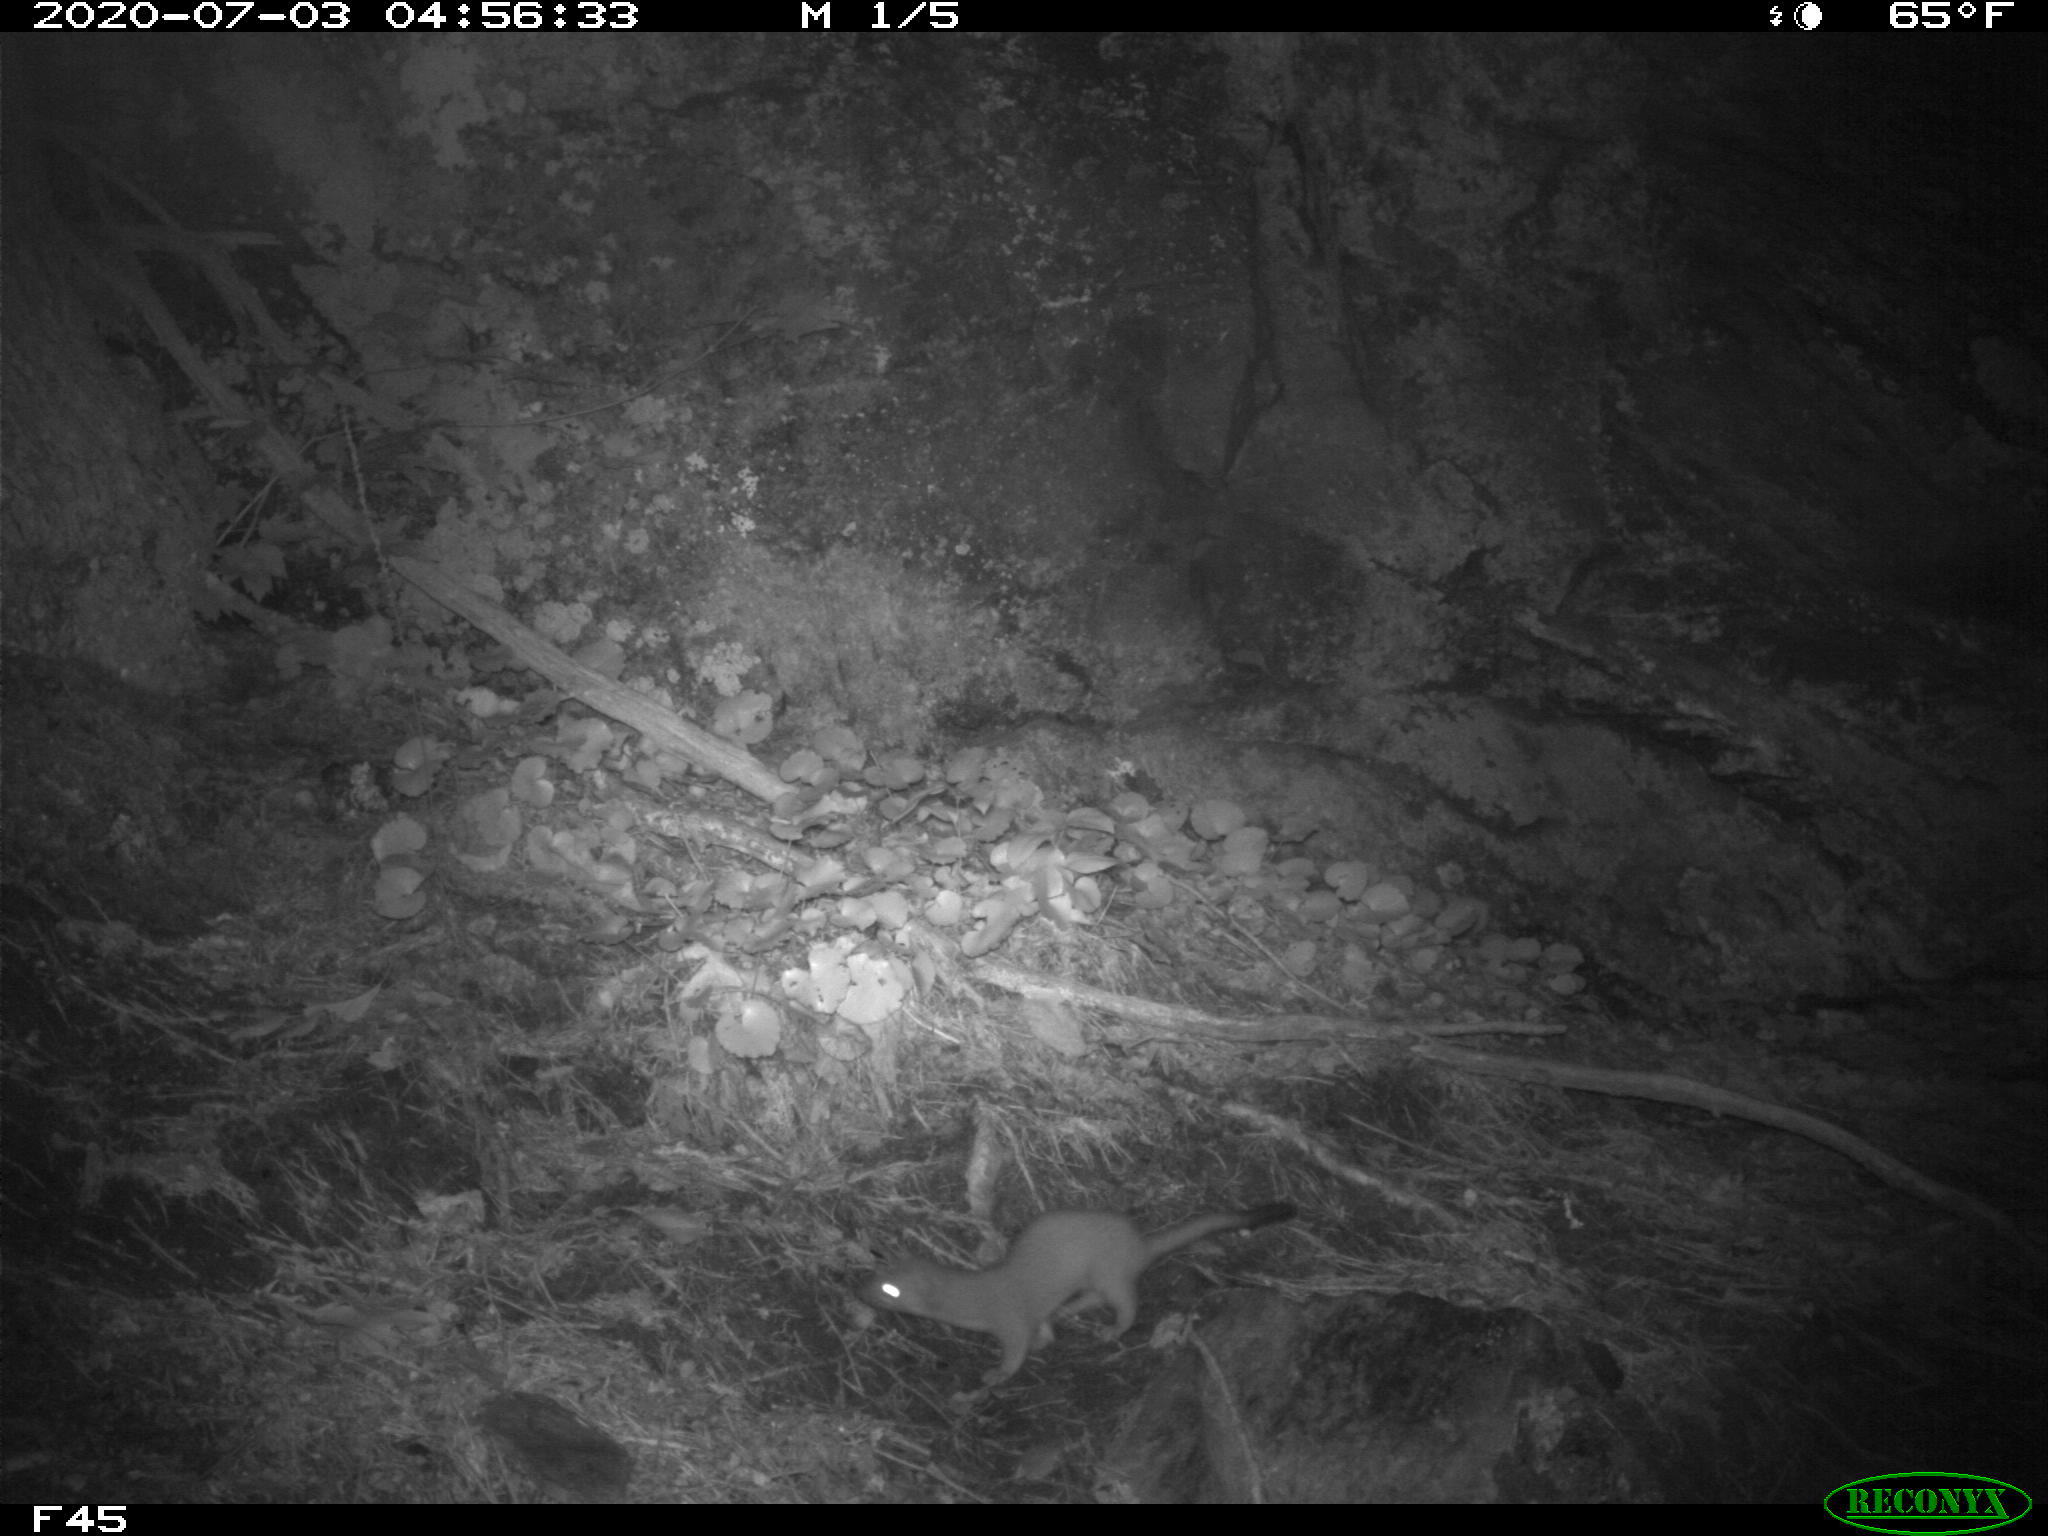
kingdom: Animalia
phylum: Chordata
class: Mammalia
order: Carnivora
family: Mustelidae
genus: Mustela
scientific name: Mustela
